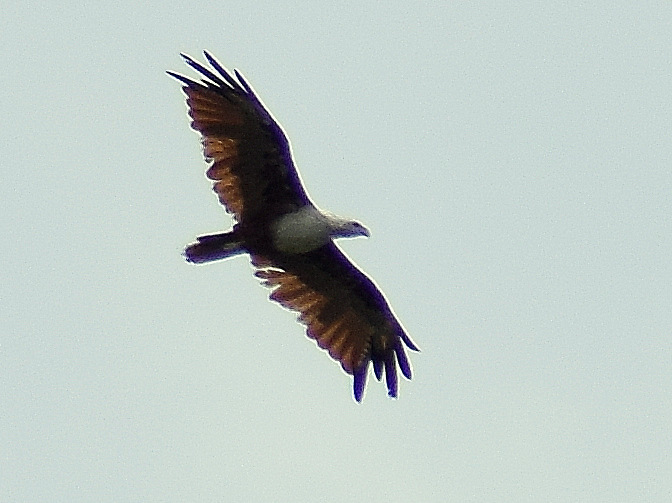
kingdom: Animalia
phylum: Chordata
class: Aves
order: Accipitriformes
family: Accipitridae
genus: Haliastur
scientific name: Haliastur indus
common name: Brahminy kite
